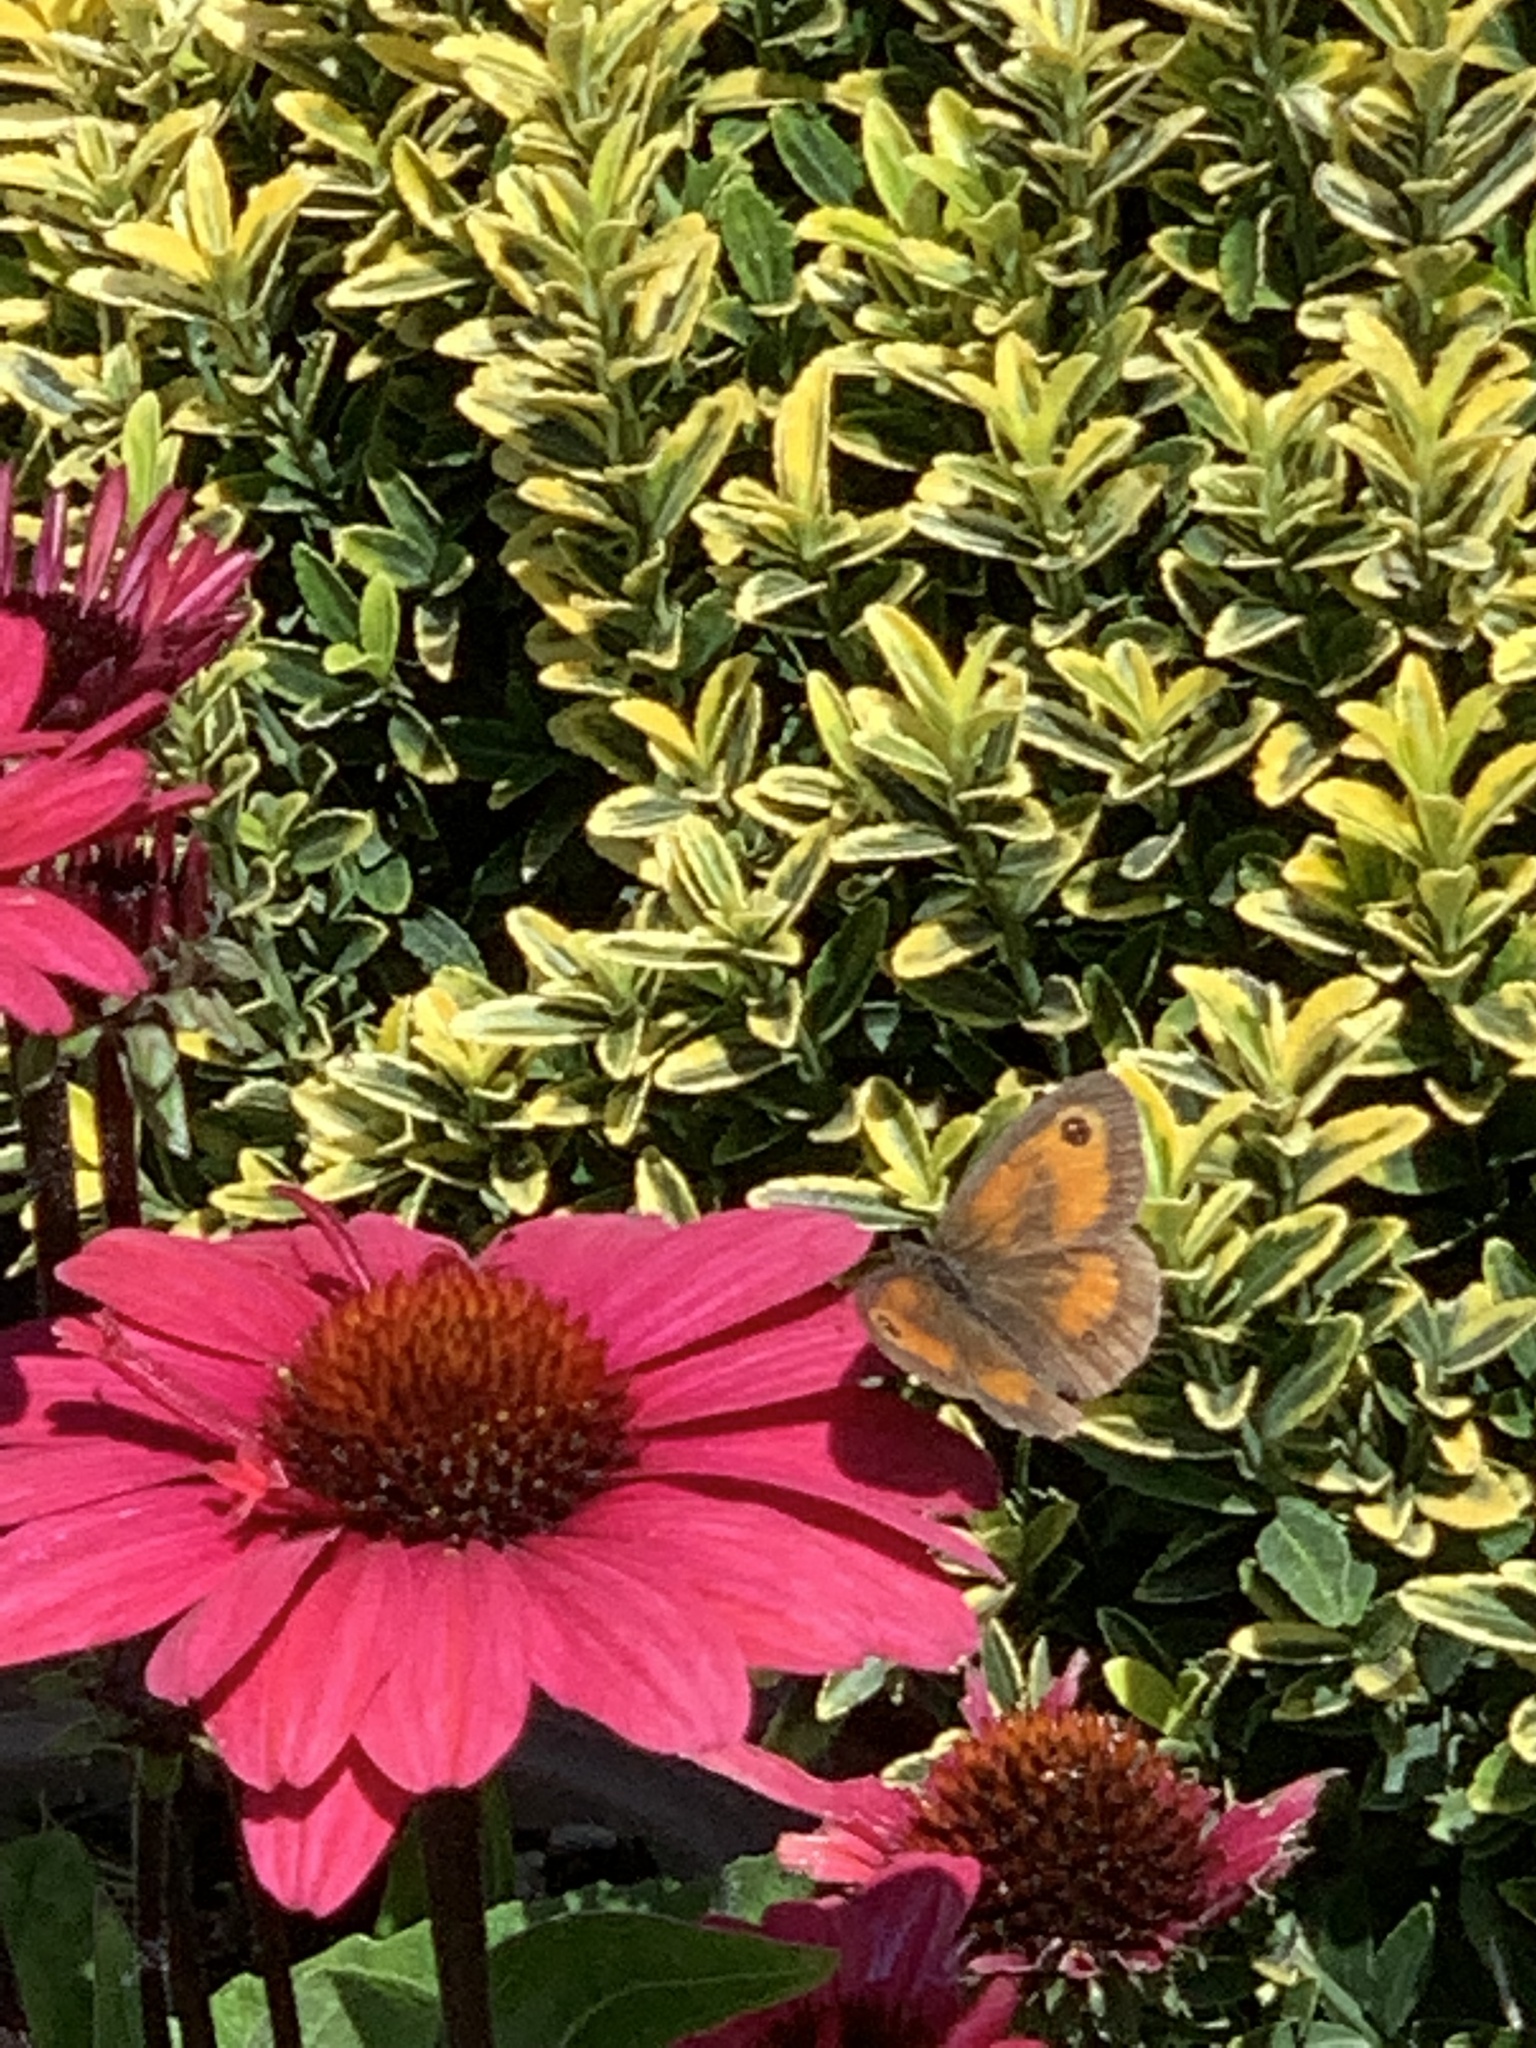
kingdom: Animalia
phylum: Arthropoda
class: Insecta
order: Lepidoptera
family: Nymphalidae
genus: Pyronia
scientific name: Pyronia tithonus
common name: Gatekeeper
